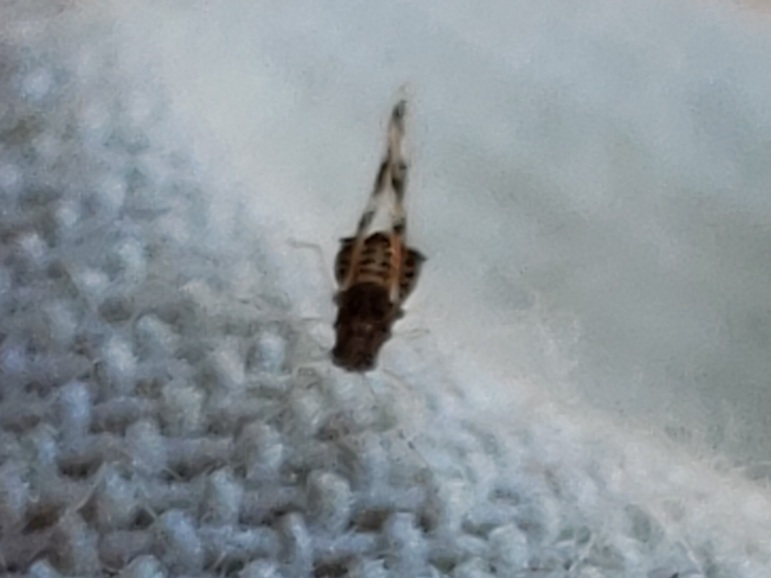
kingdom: Animalia
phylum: Arthropoda
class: Insecta
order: Hemiptera
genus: Neomyzocallis
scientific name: Neomyzocallis
